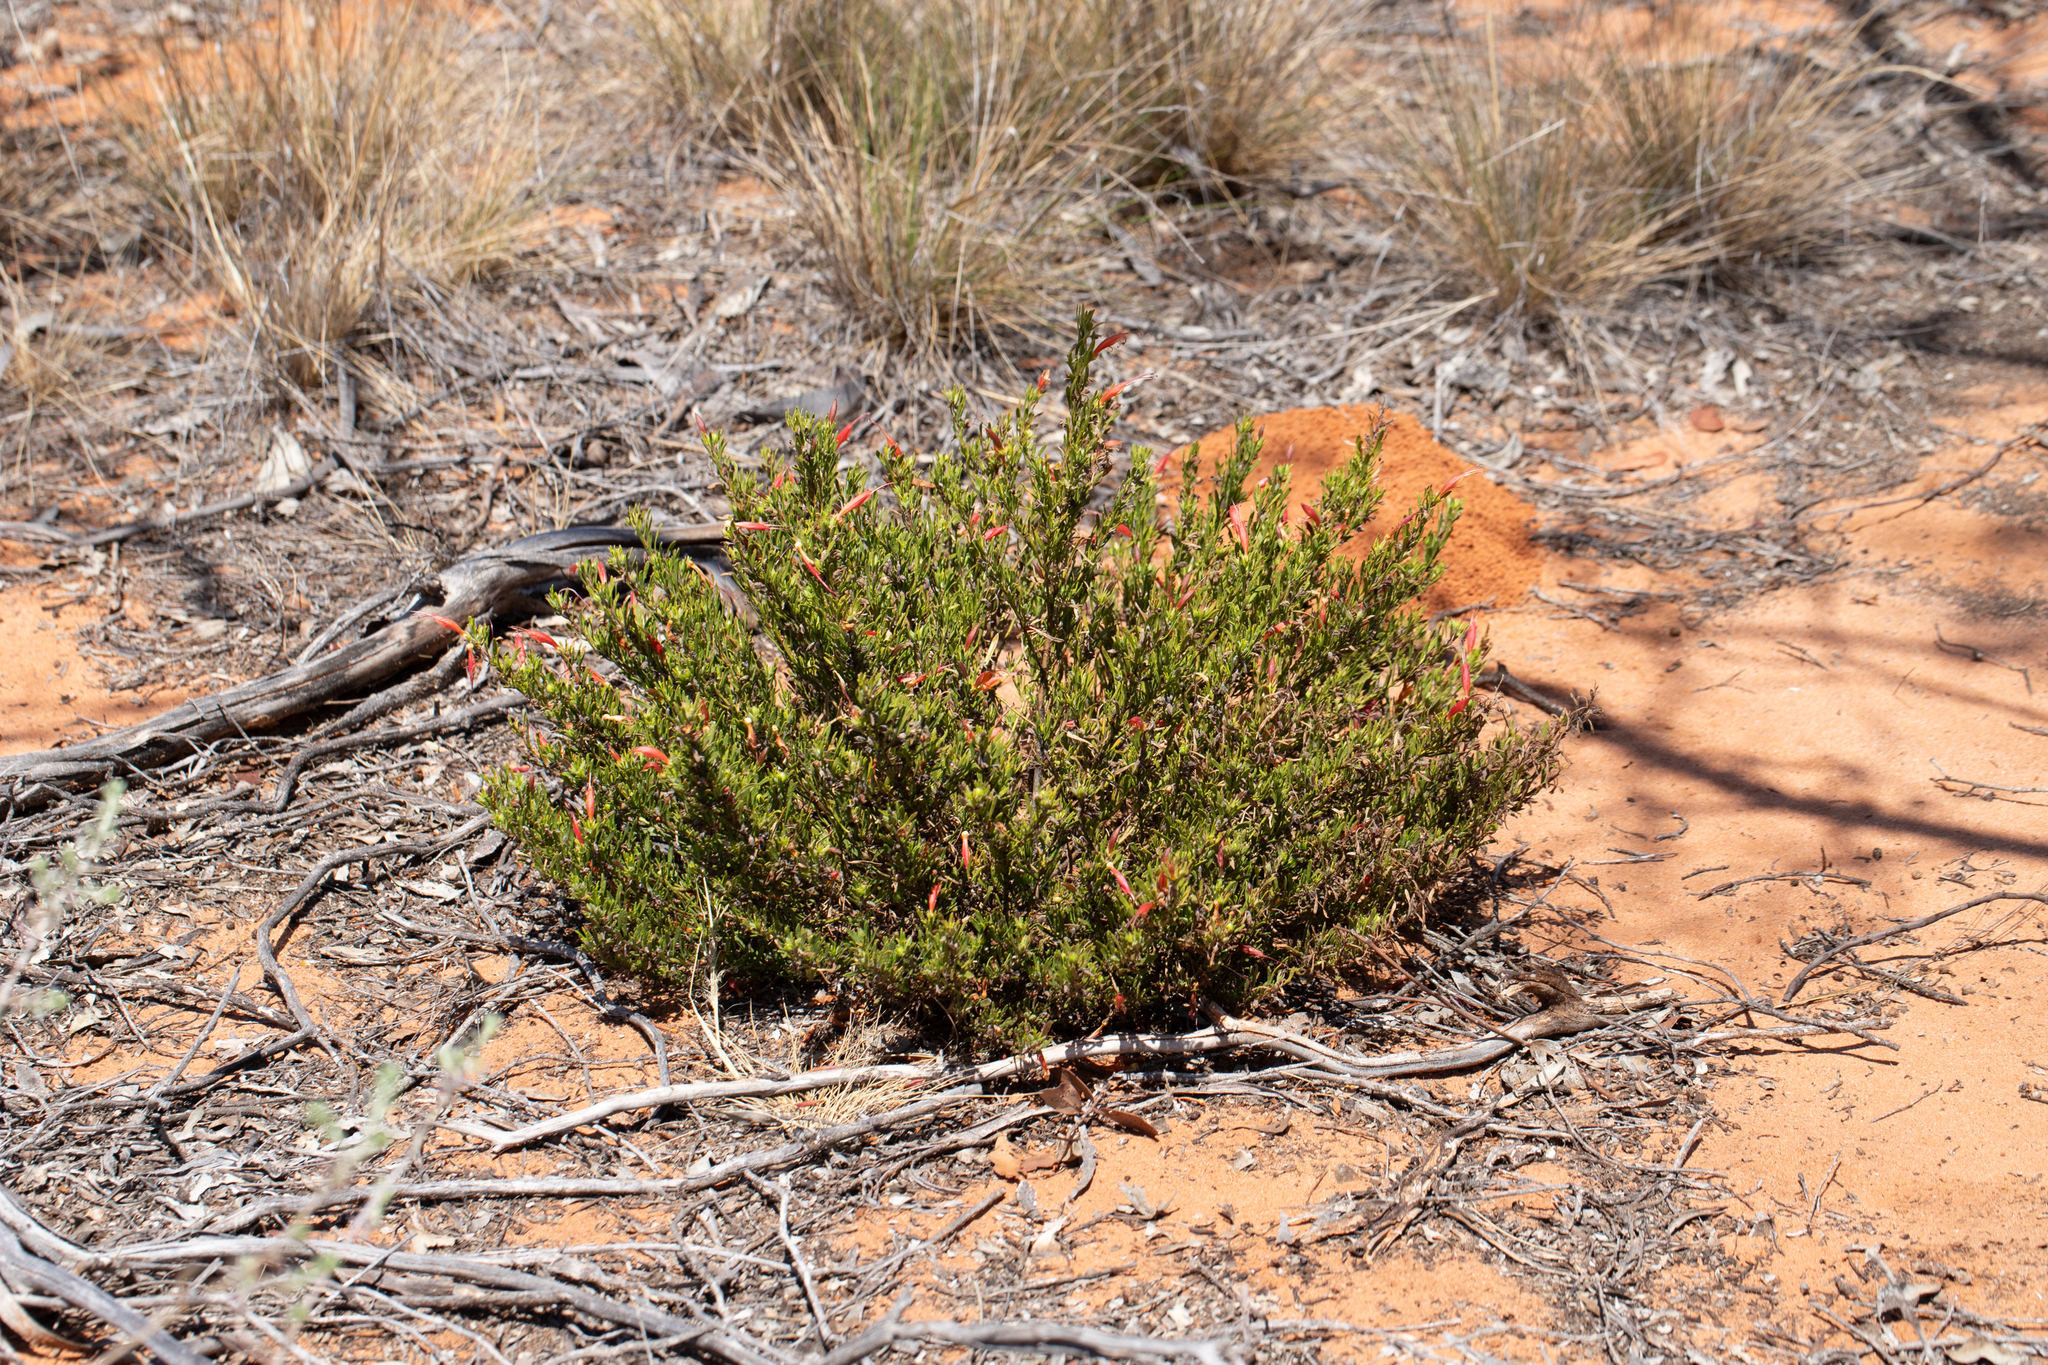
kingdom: Plantae
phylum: Tracheophyta
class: Magnoliopsida
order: Lamiales
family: Scrophulariaceae
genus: Eremophila
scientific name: Eremophila glabra
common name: Black-fuchsia
